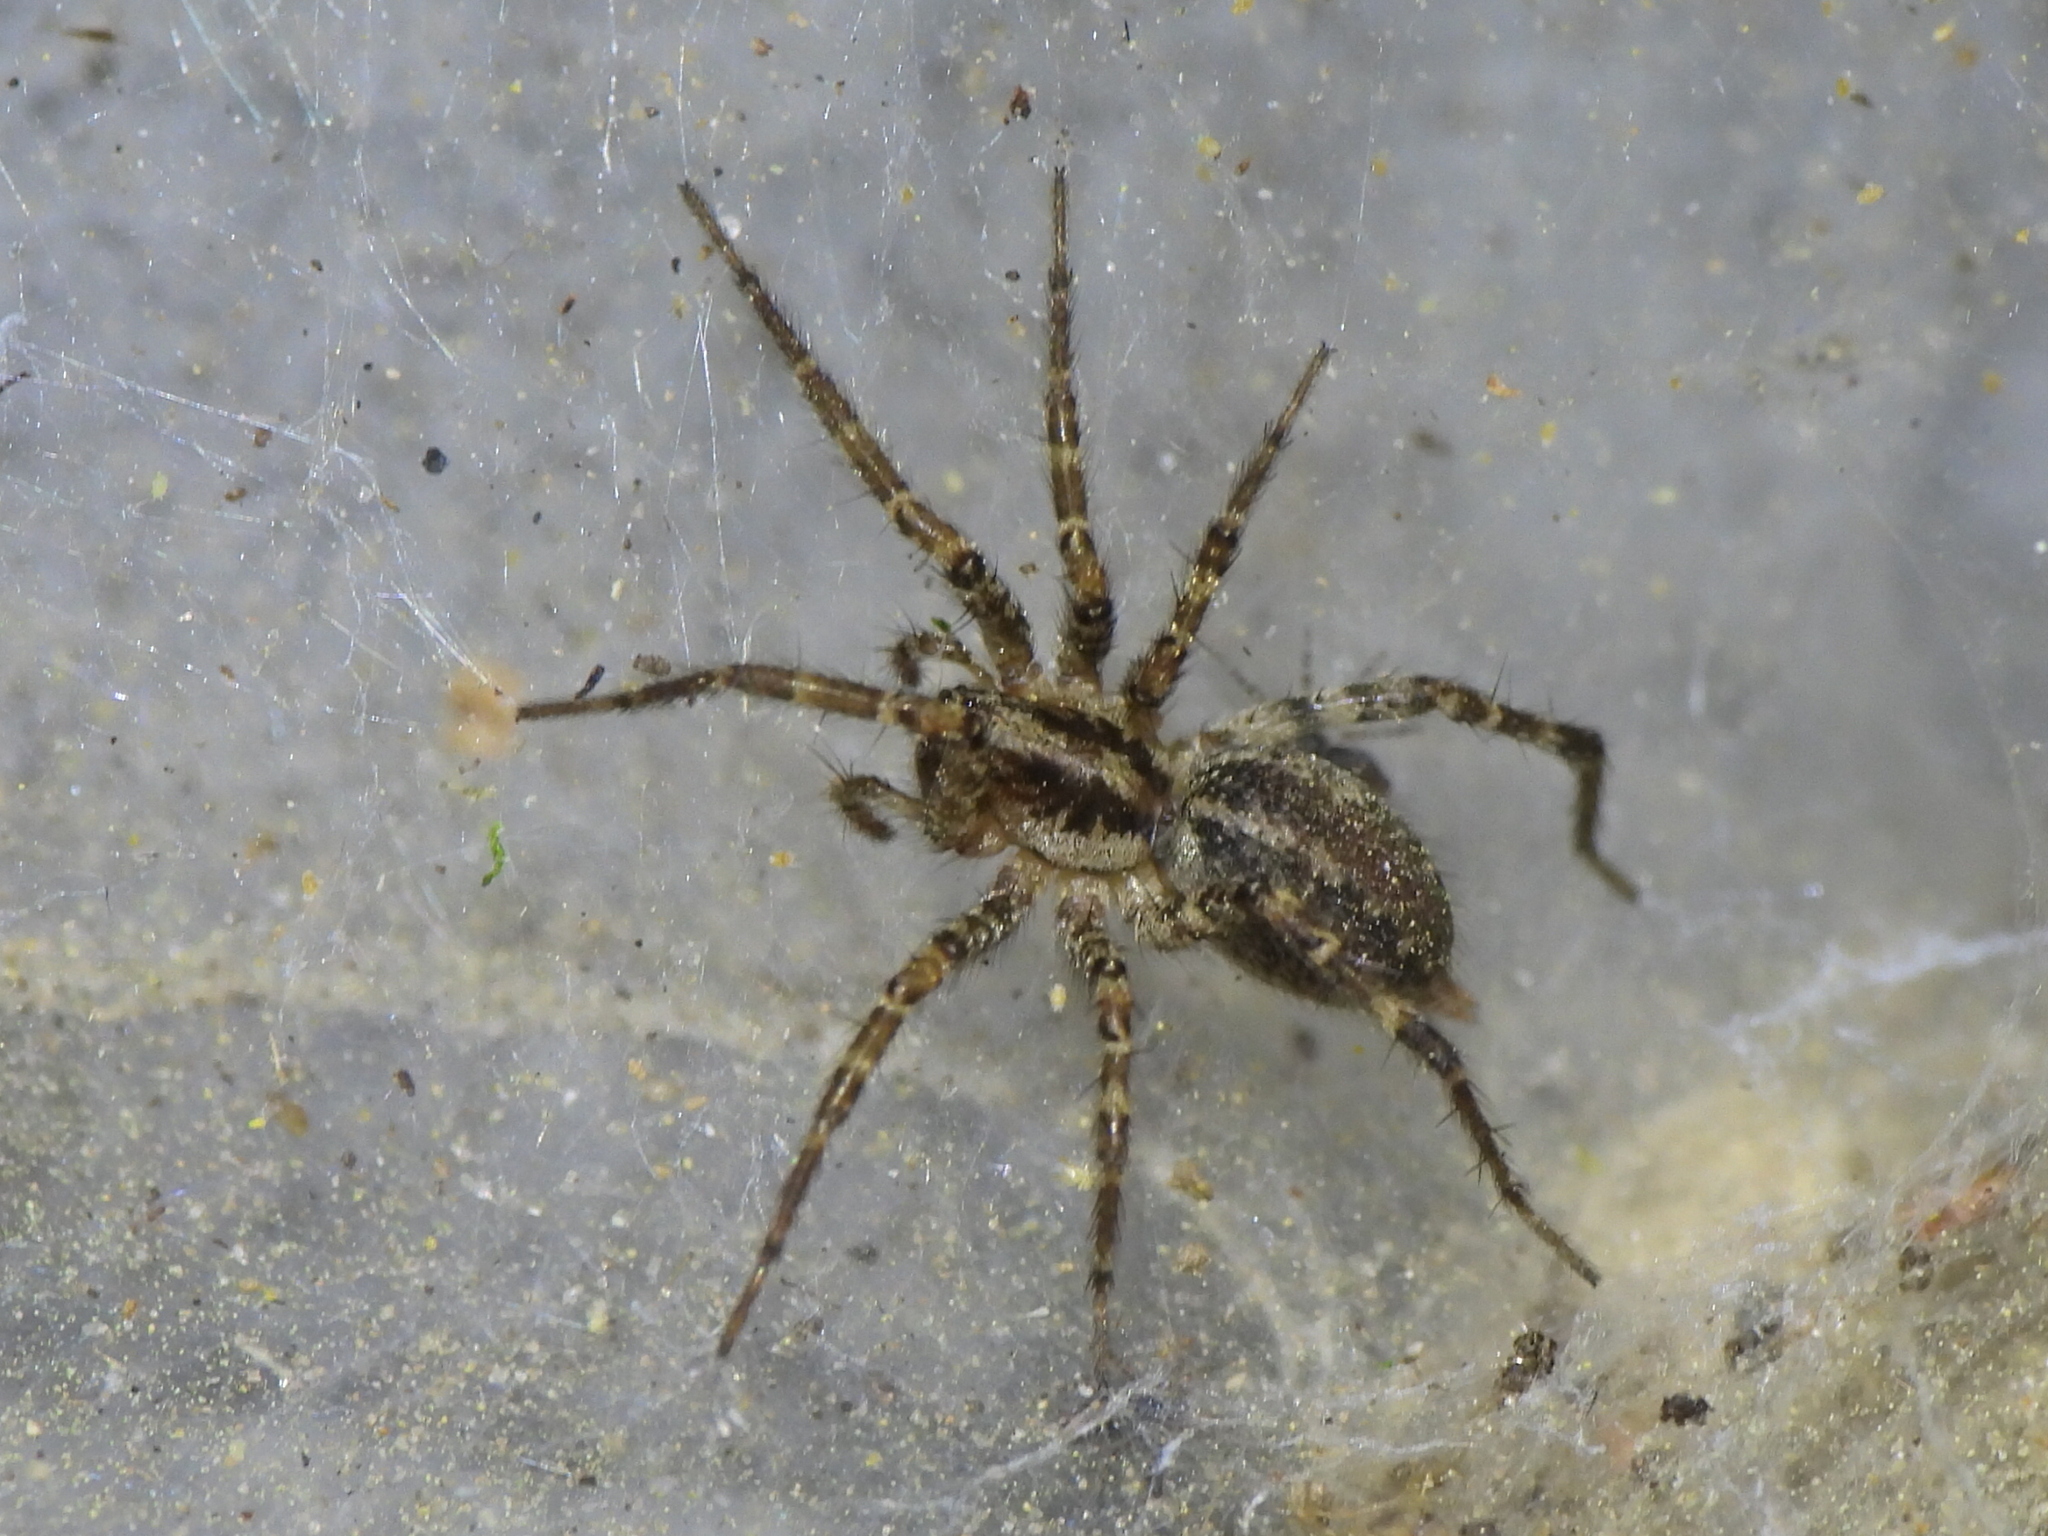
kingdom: Animalia
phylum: Arthropoda
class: Arachnida
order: Araneae
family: Agelenidae
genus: Barronopsis
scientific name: Barronopsis texana
